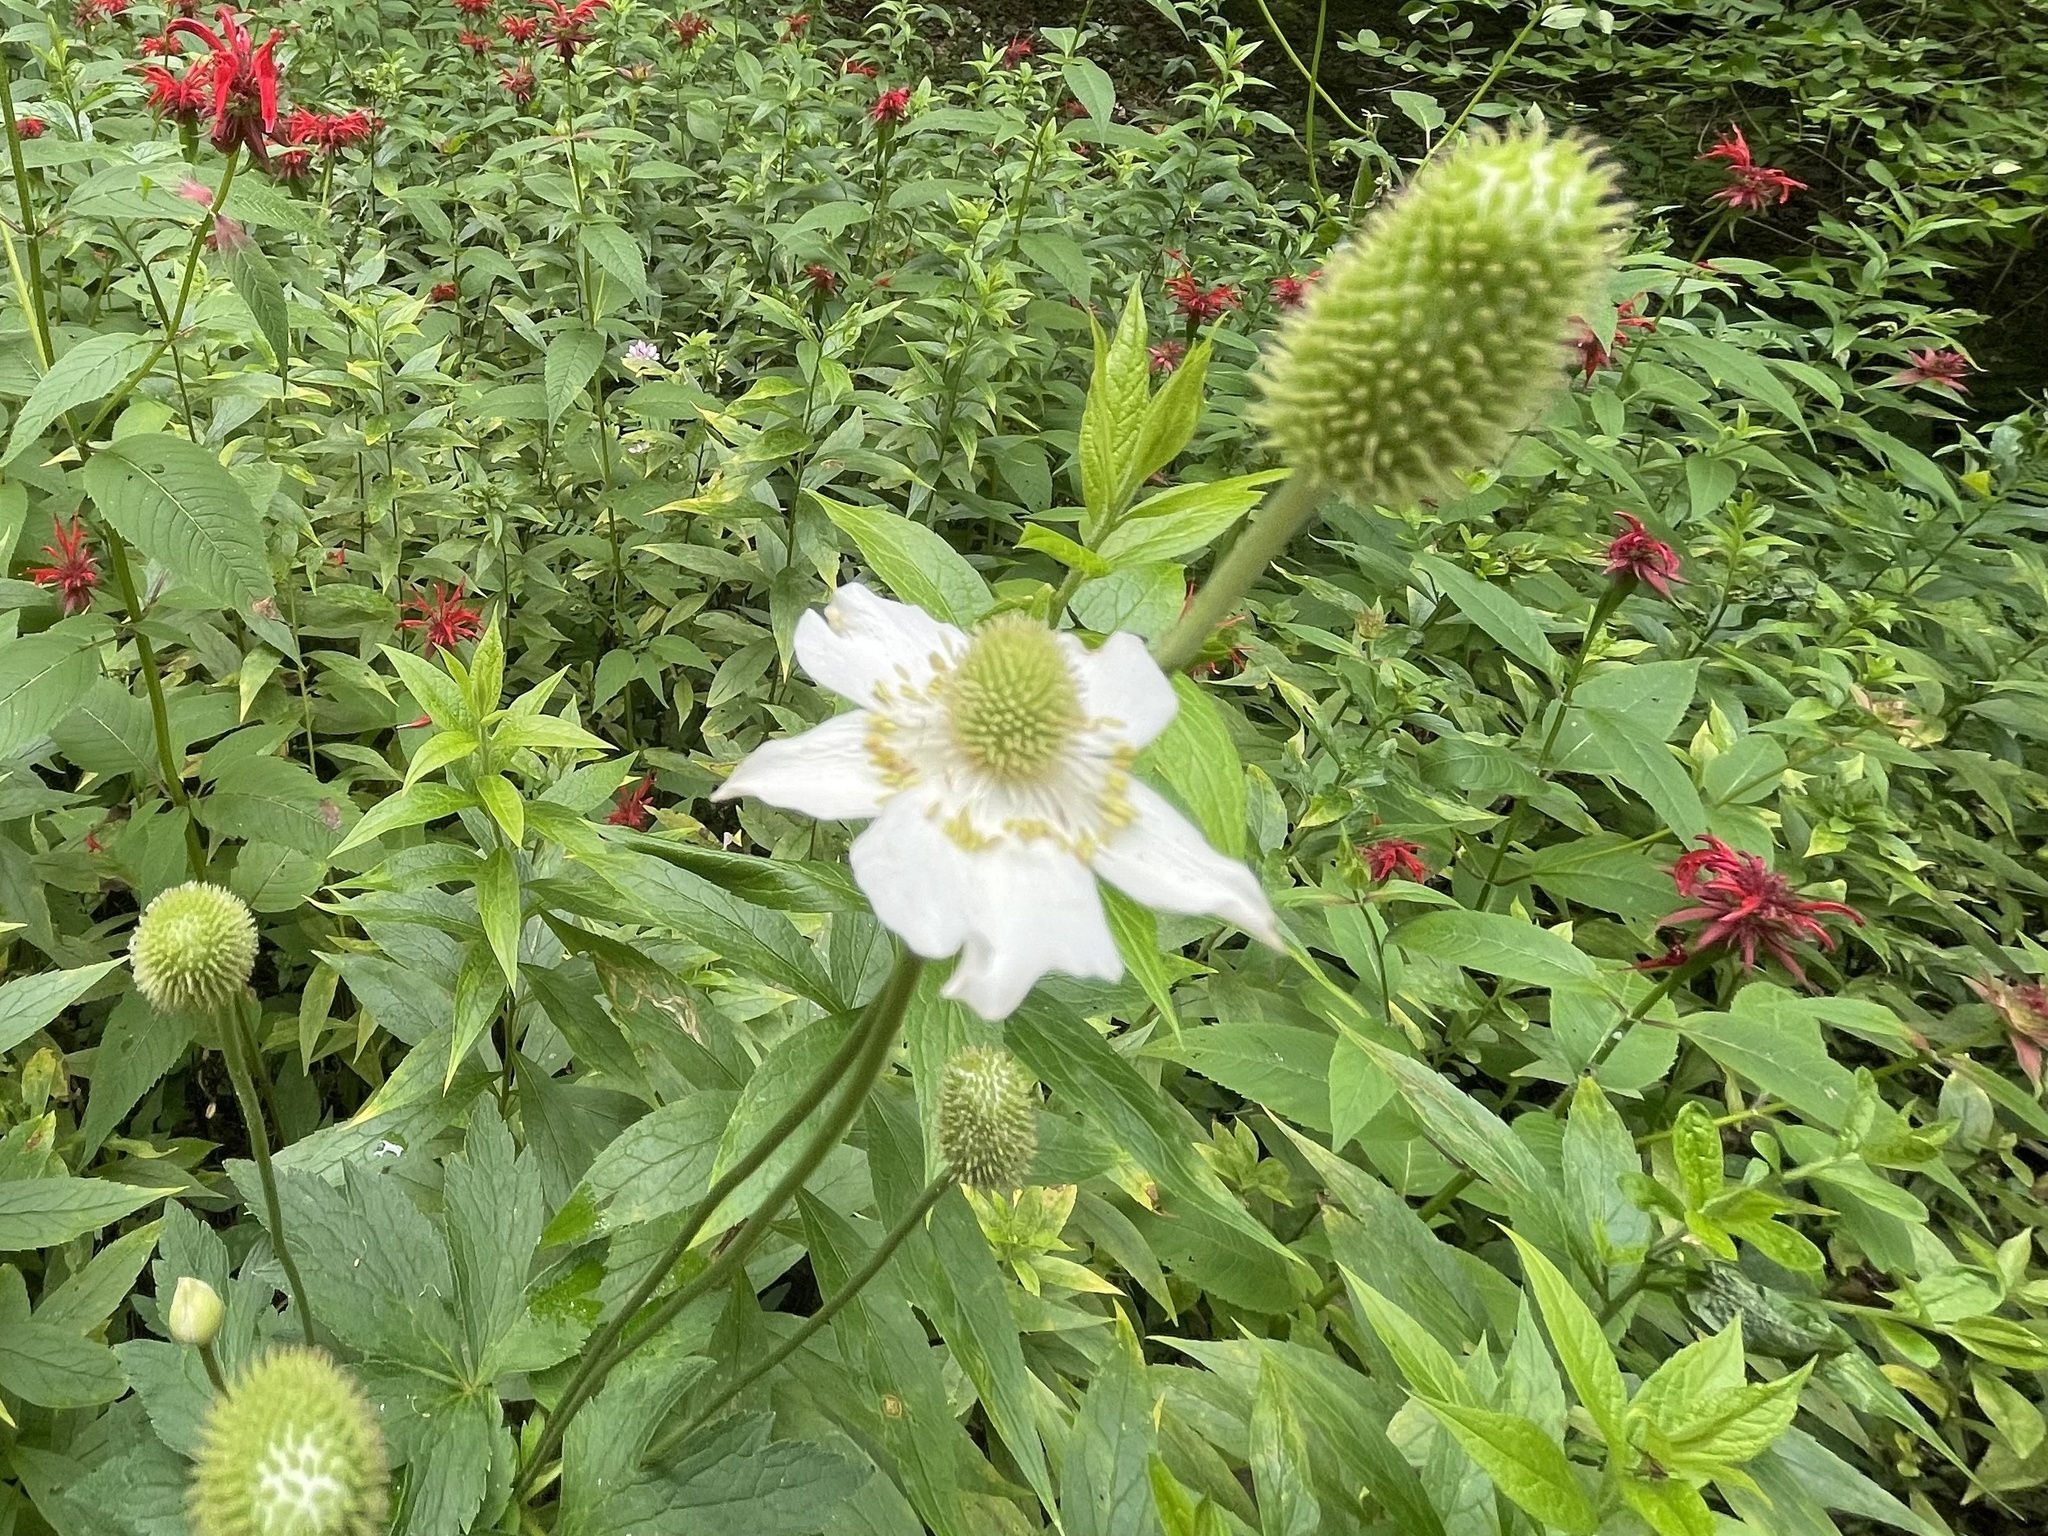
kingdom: Plantae
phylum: Tracheophyta
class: Magnoliopsida
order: Ranunculales
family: Ranunculaceae
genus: Anemone
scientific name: Anemone virginiana
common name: Tall anemone
